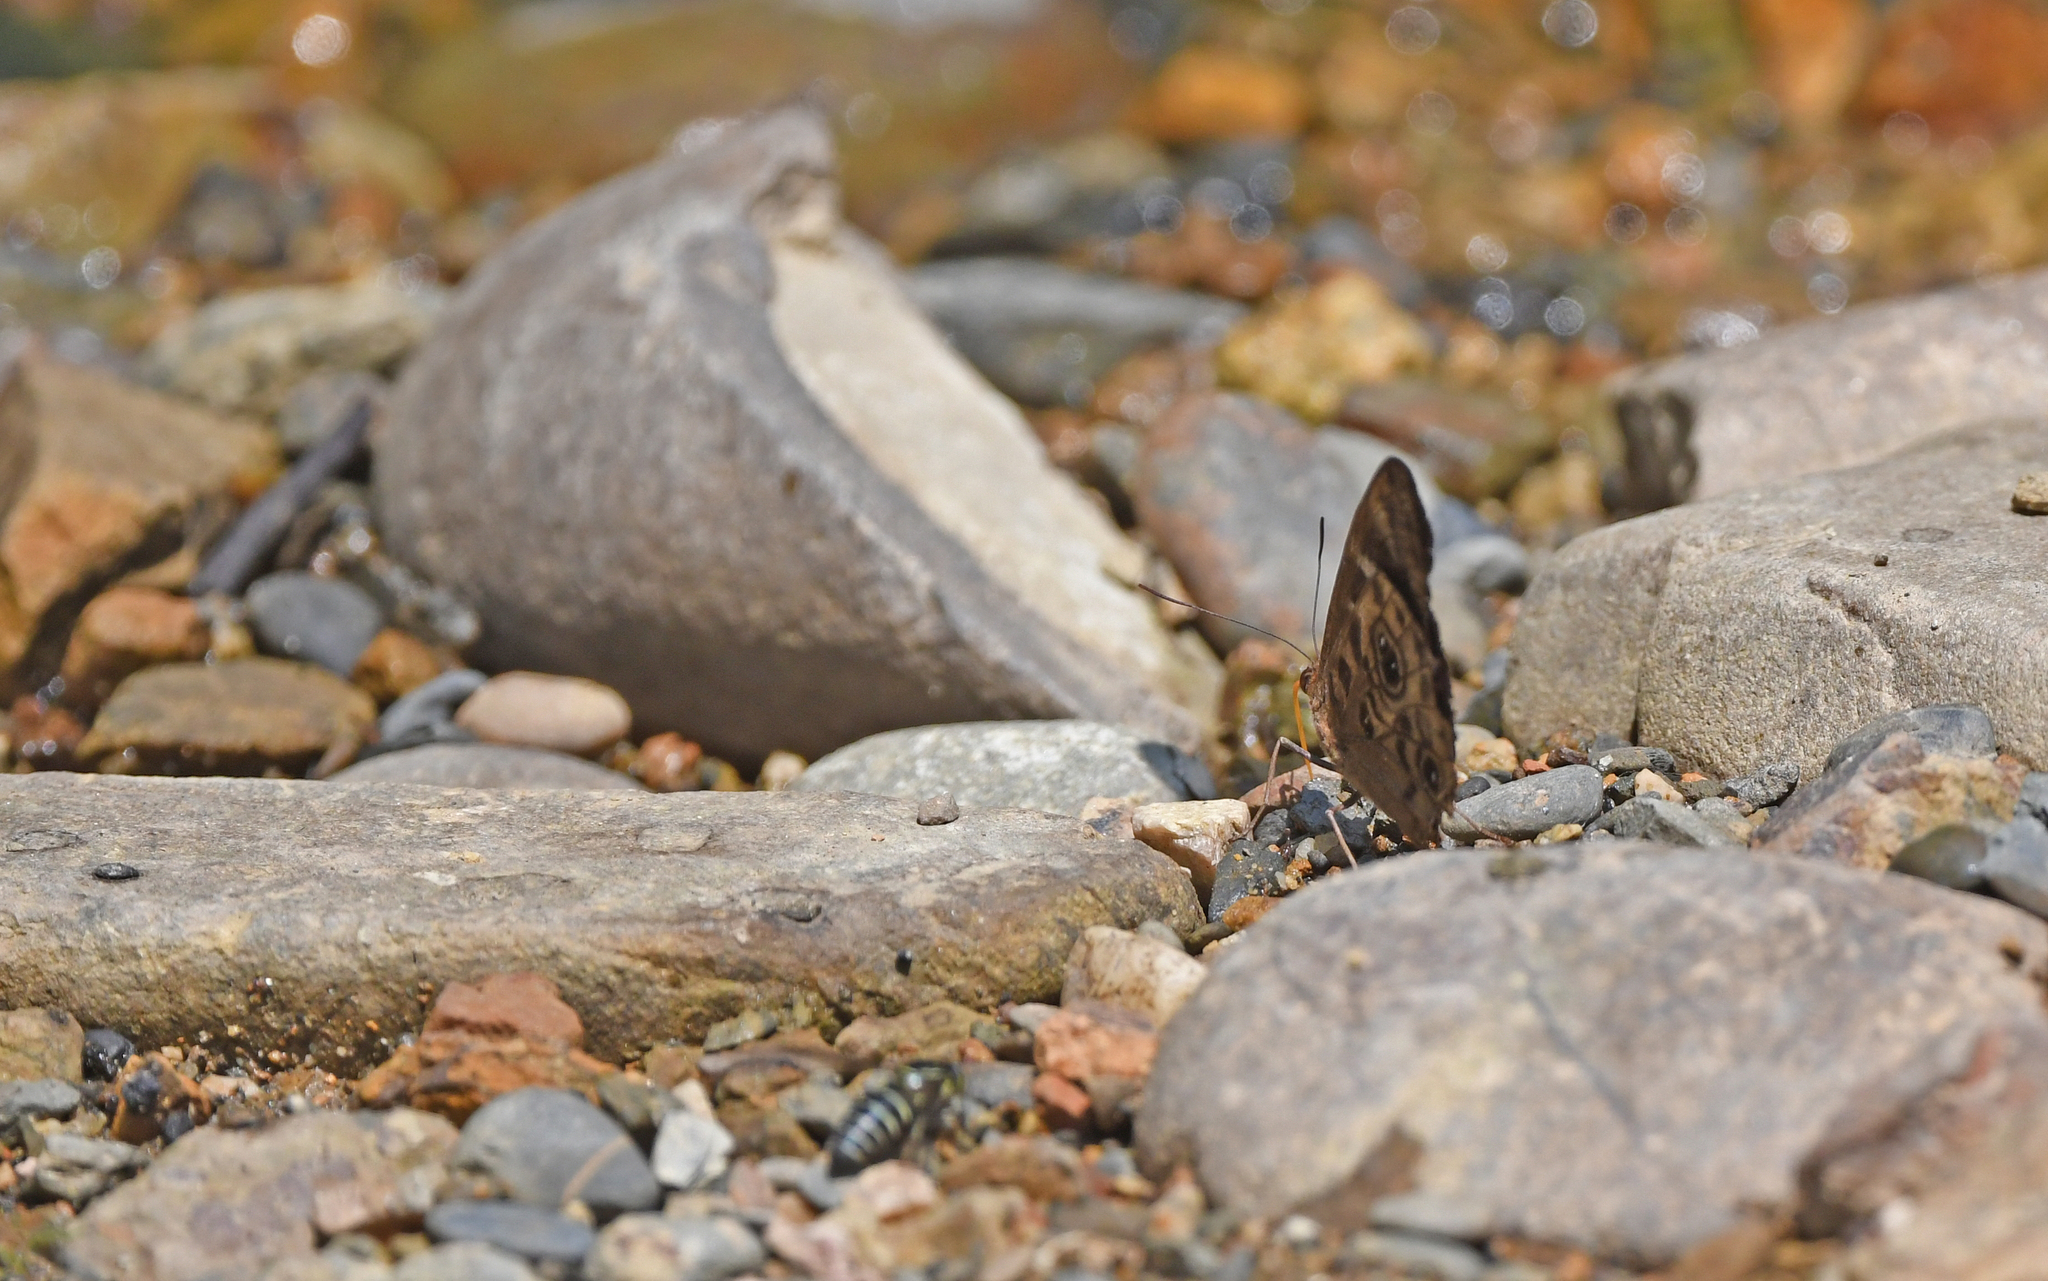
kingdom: Animalia
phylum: Arthropoda
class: Insecta
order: Lepidoptera
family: Nymphalidae
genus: Eunica
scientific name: Eunica alpais
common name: Shining purplewing
